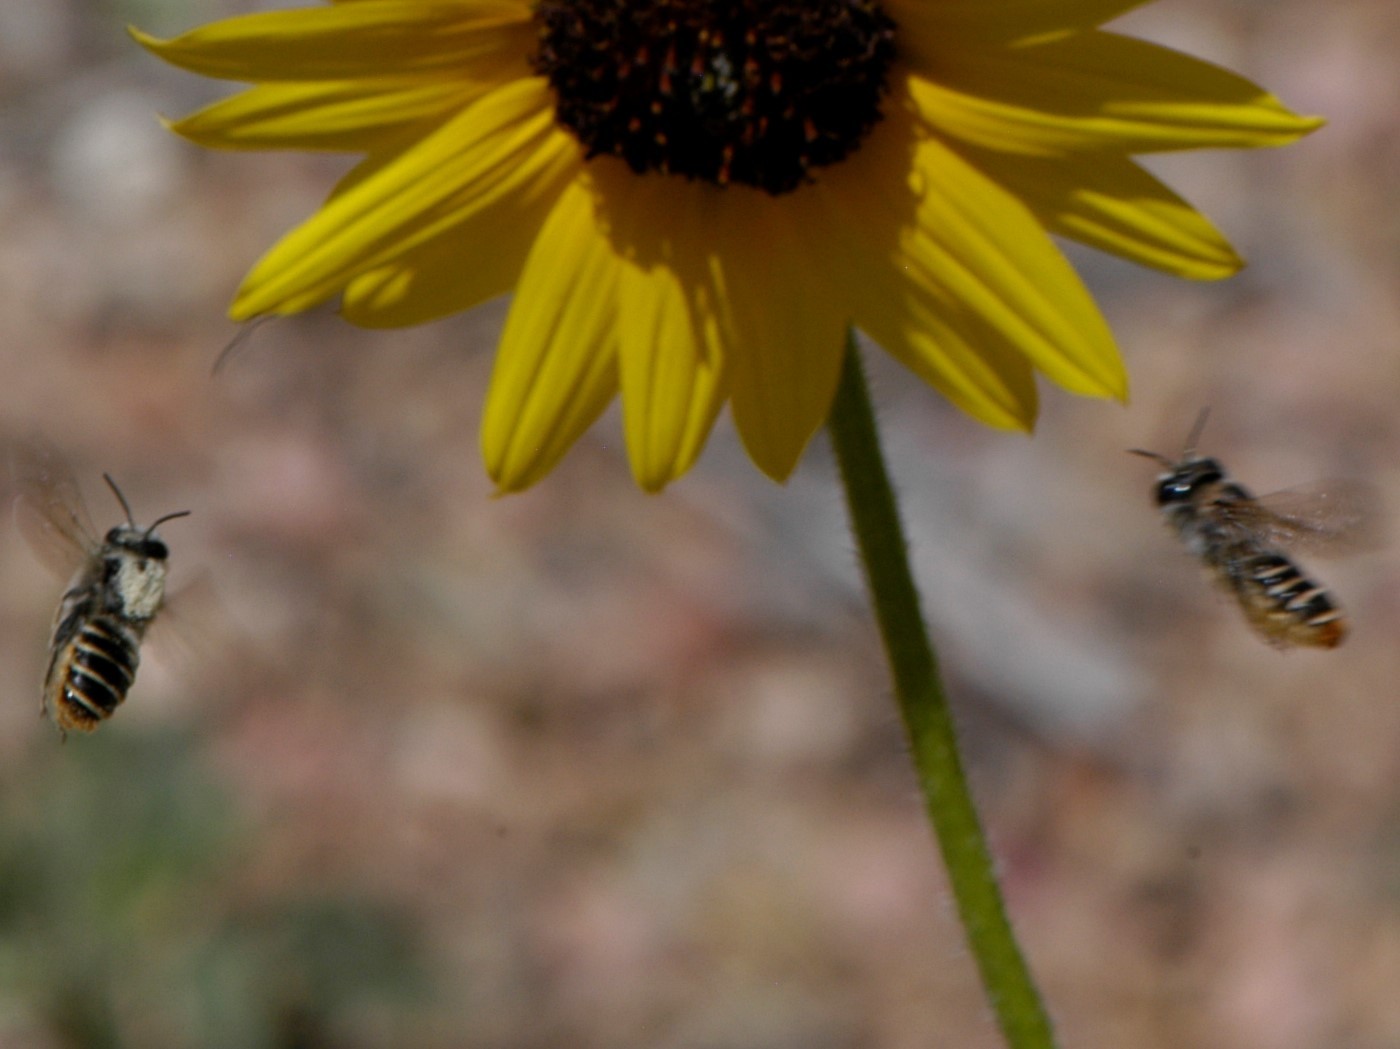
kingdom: Animalia
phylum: Arthropoda
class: Insecta
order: Hymenoptera
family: Megachilidae
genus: Lithurgopsis
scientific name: Lithurgopsis apicalis
